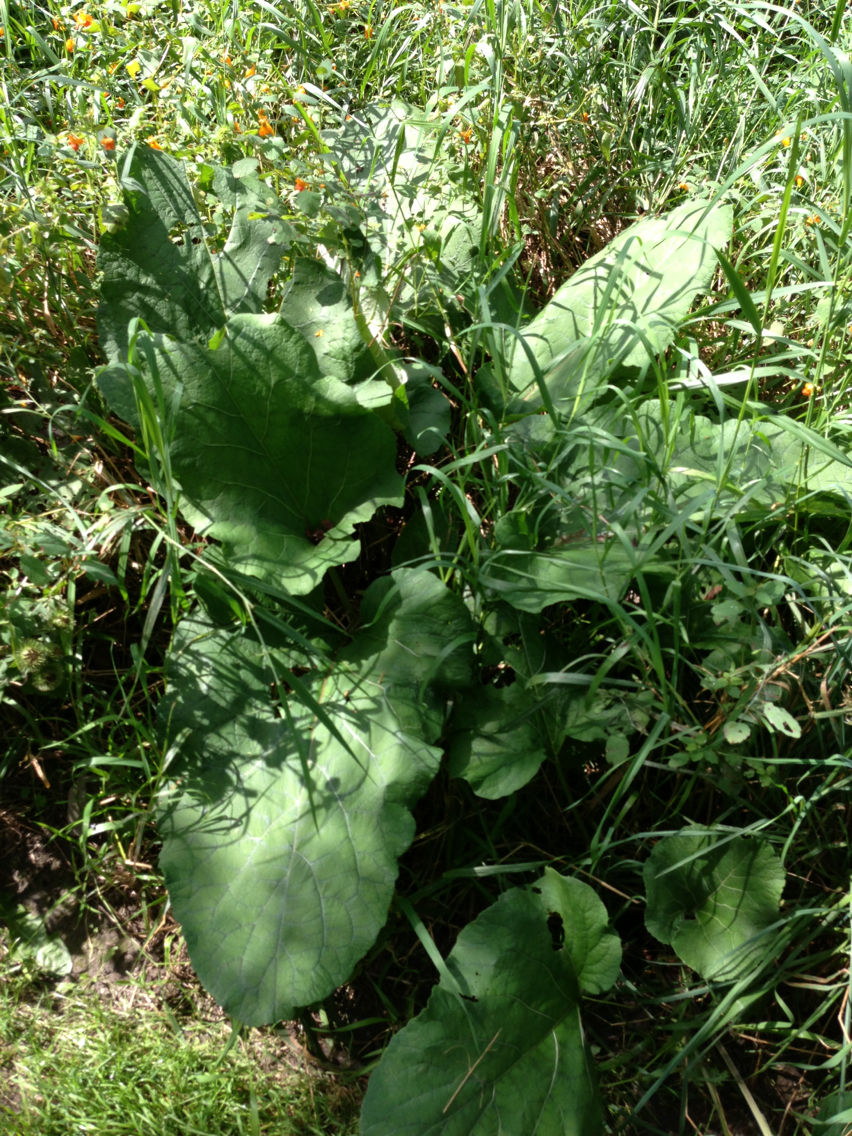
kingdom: Plantae
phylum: Tracheophyta
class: Magnoliopsida
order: Asterales
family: Asteraceae
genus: Arctium
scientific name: Arctium lappa
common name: Greater burdock
